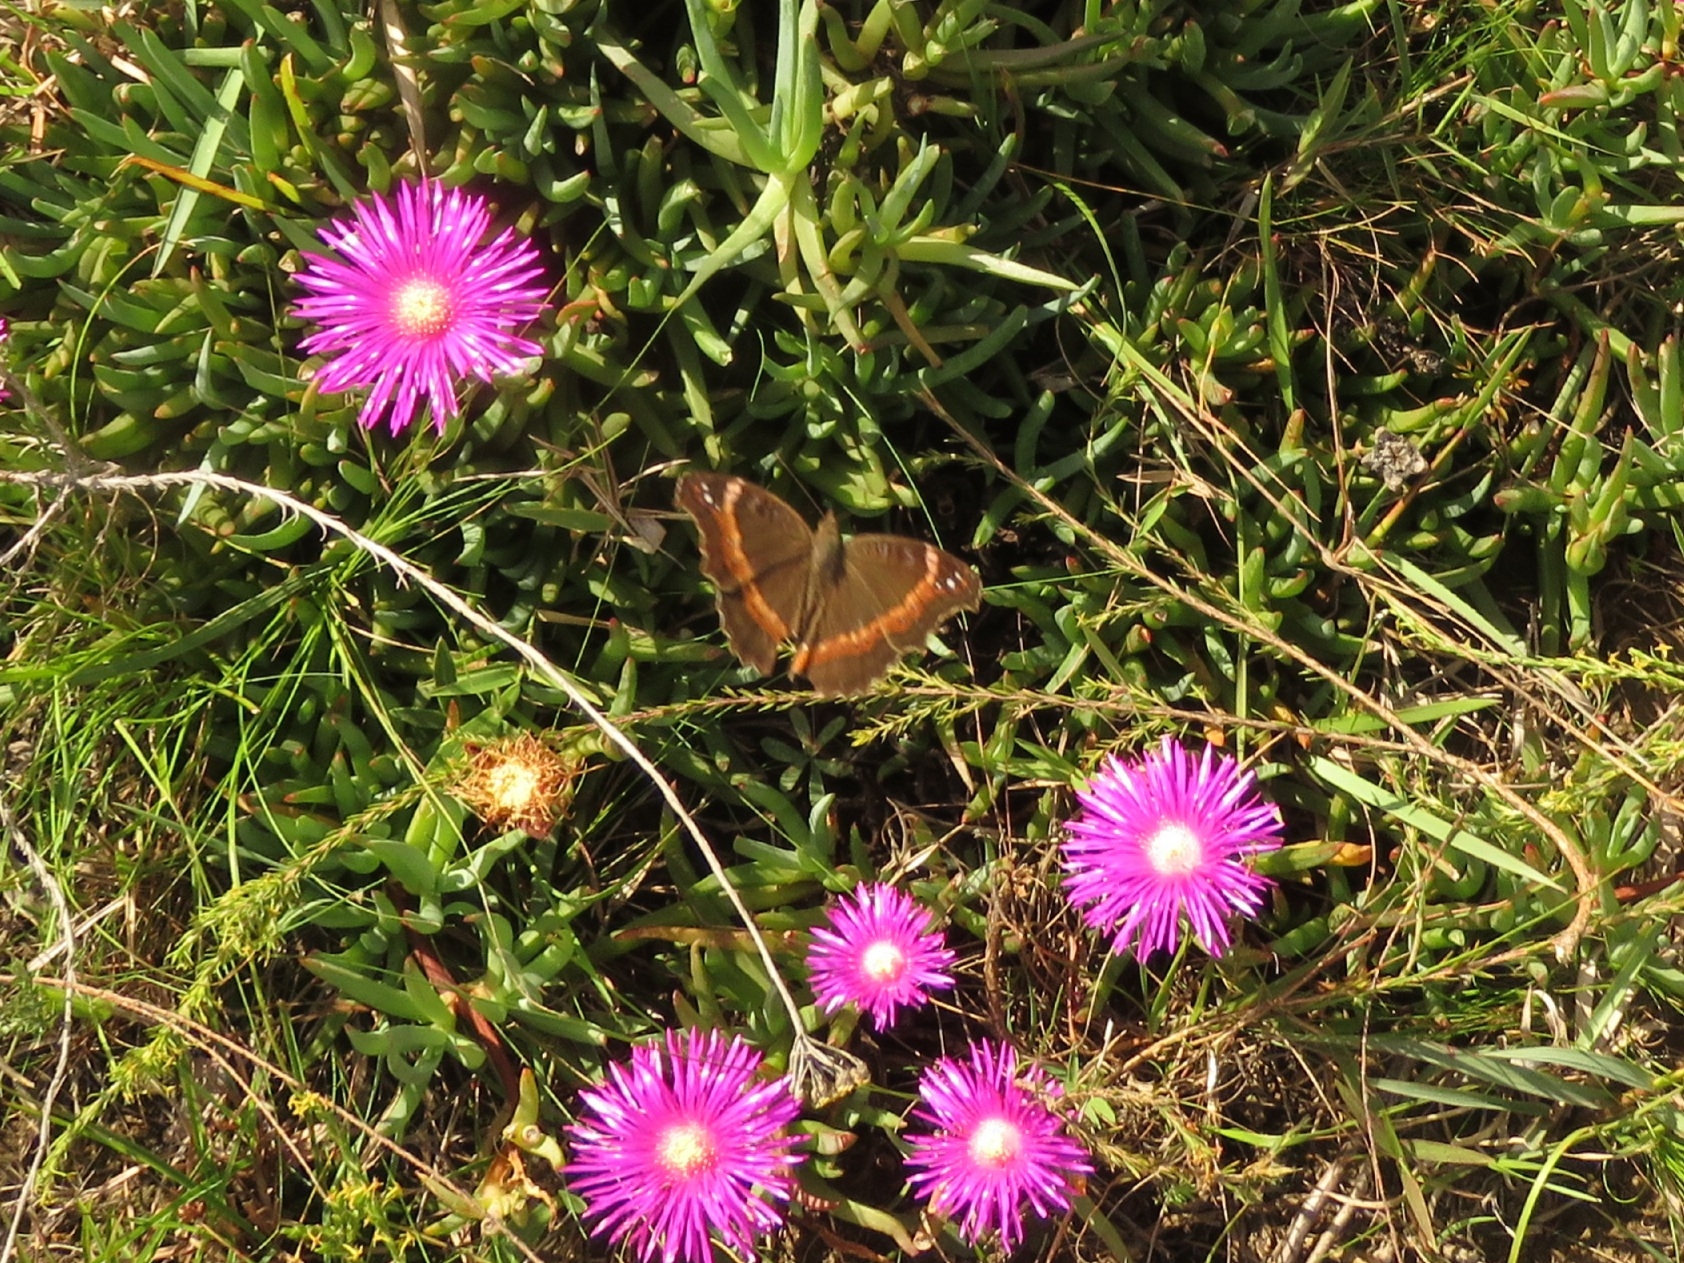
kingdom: Animalia
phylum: Arthropoda
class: Insecta
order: Lepidoptera
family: Nymphalidae
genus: Junonia
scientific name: Junonia archesia
